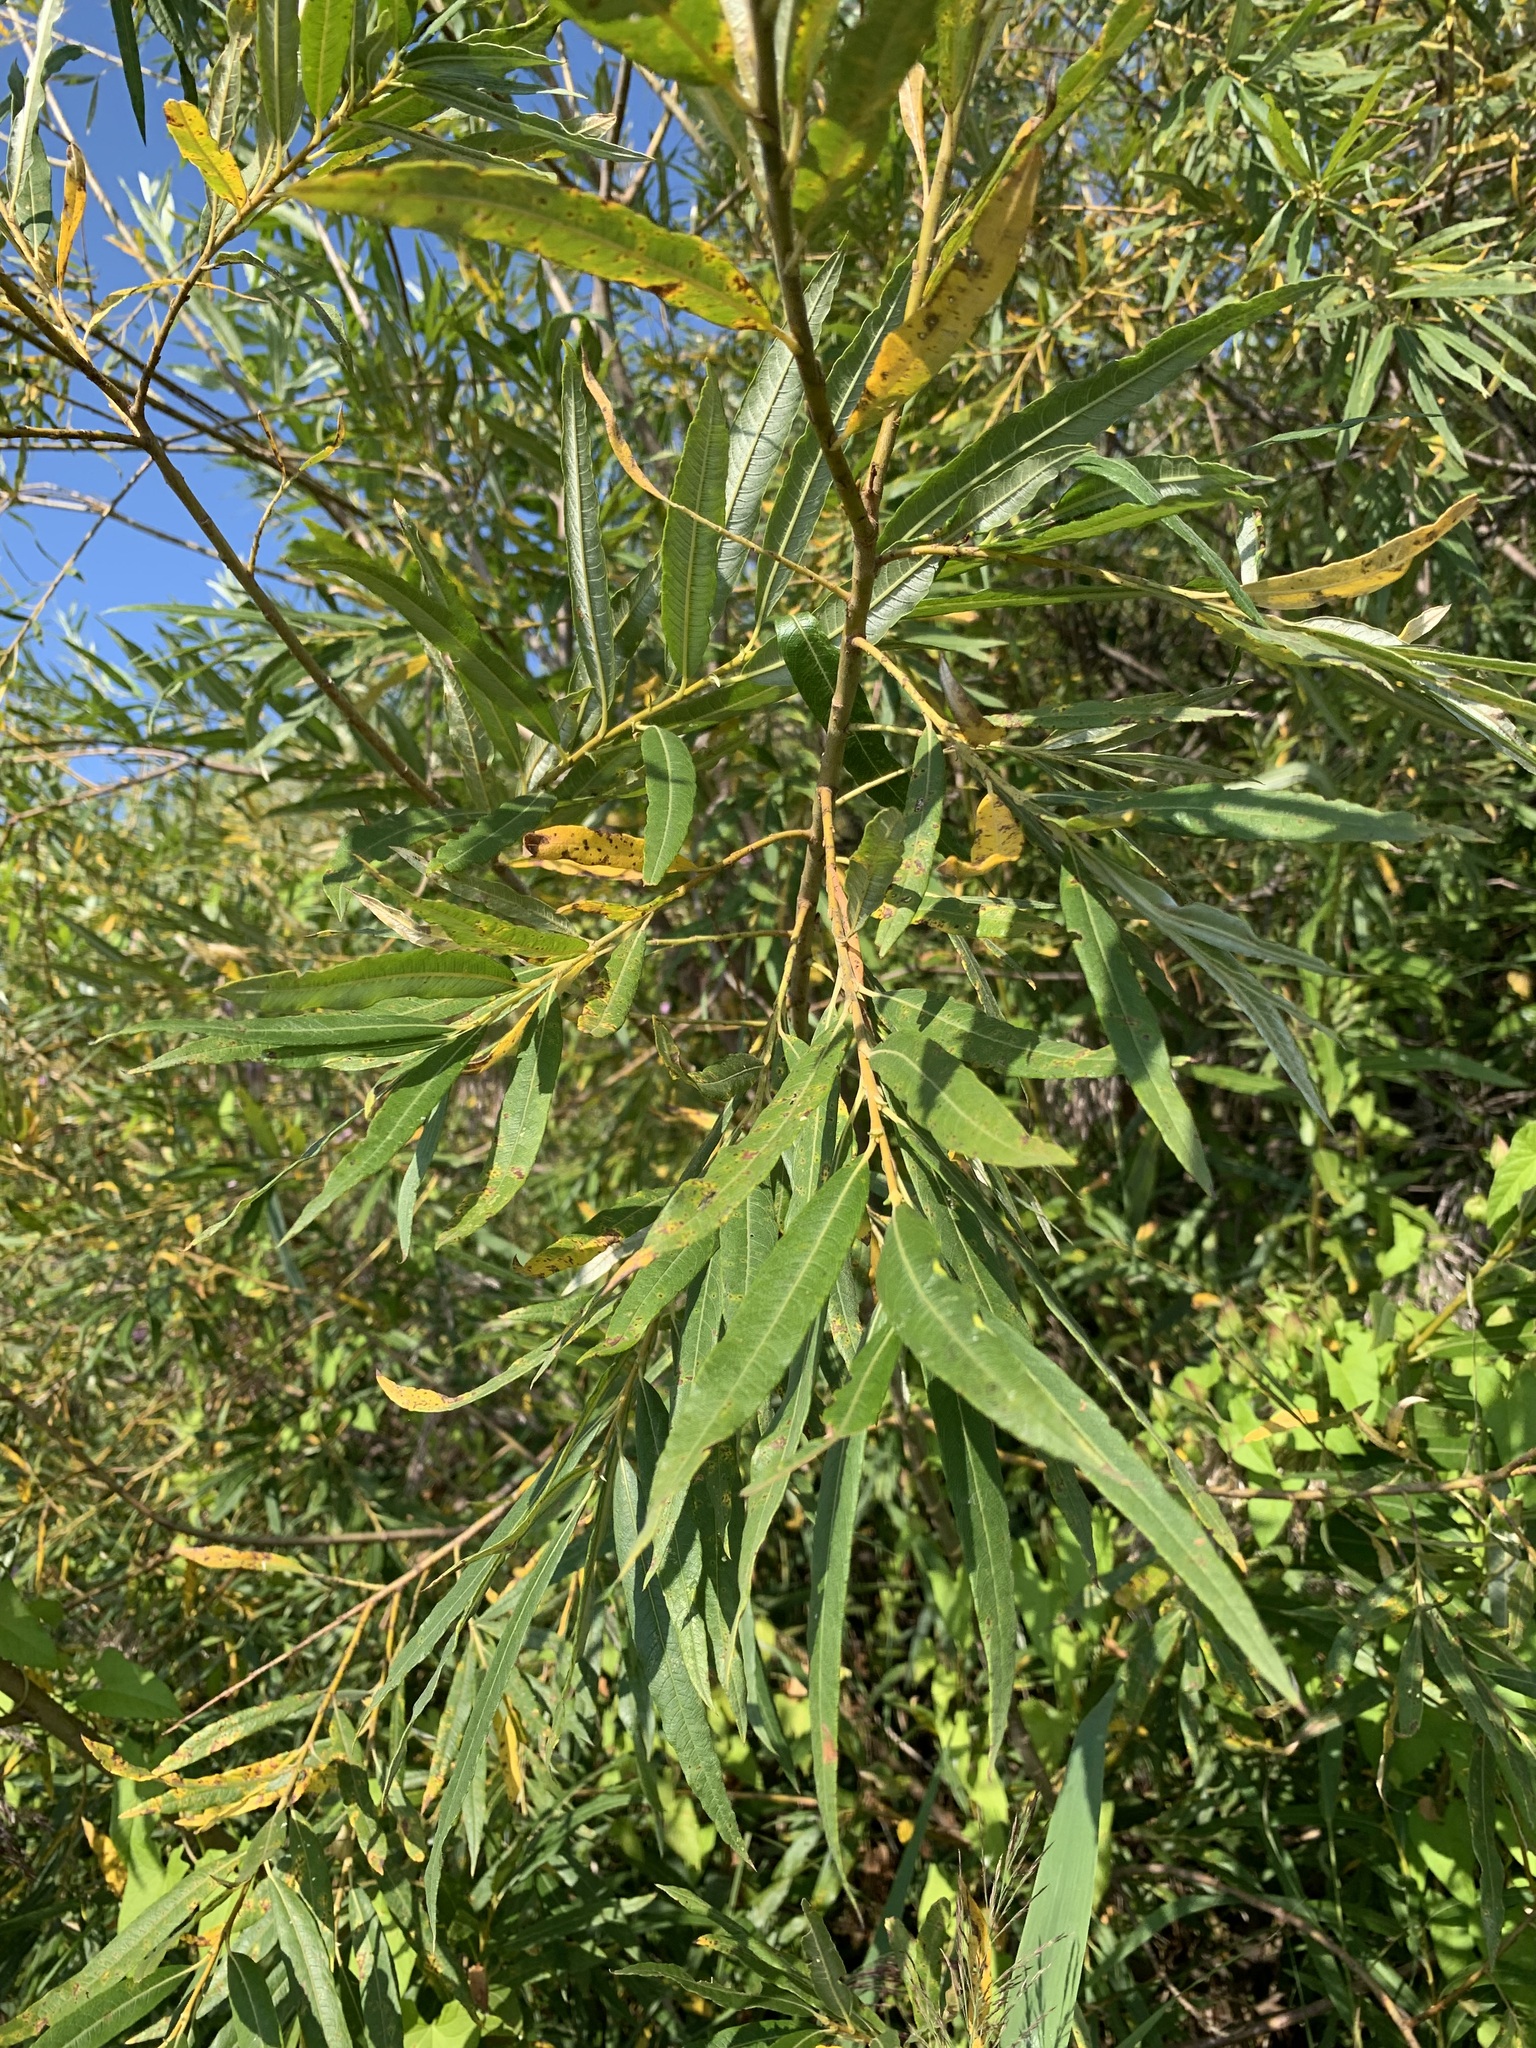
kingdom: Plantae
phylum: Tracheophyta
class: Magnoliopsida
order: Malpighiales
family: Salicaceae
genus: Salix
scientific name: Salix viminalis
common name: Osier
